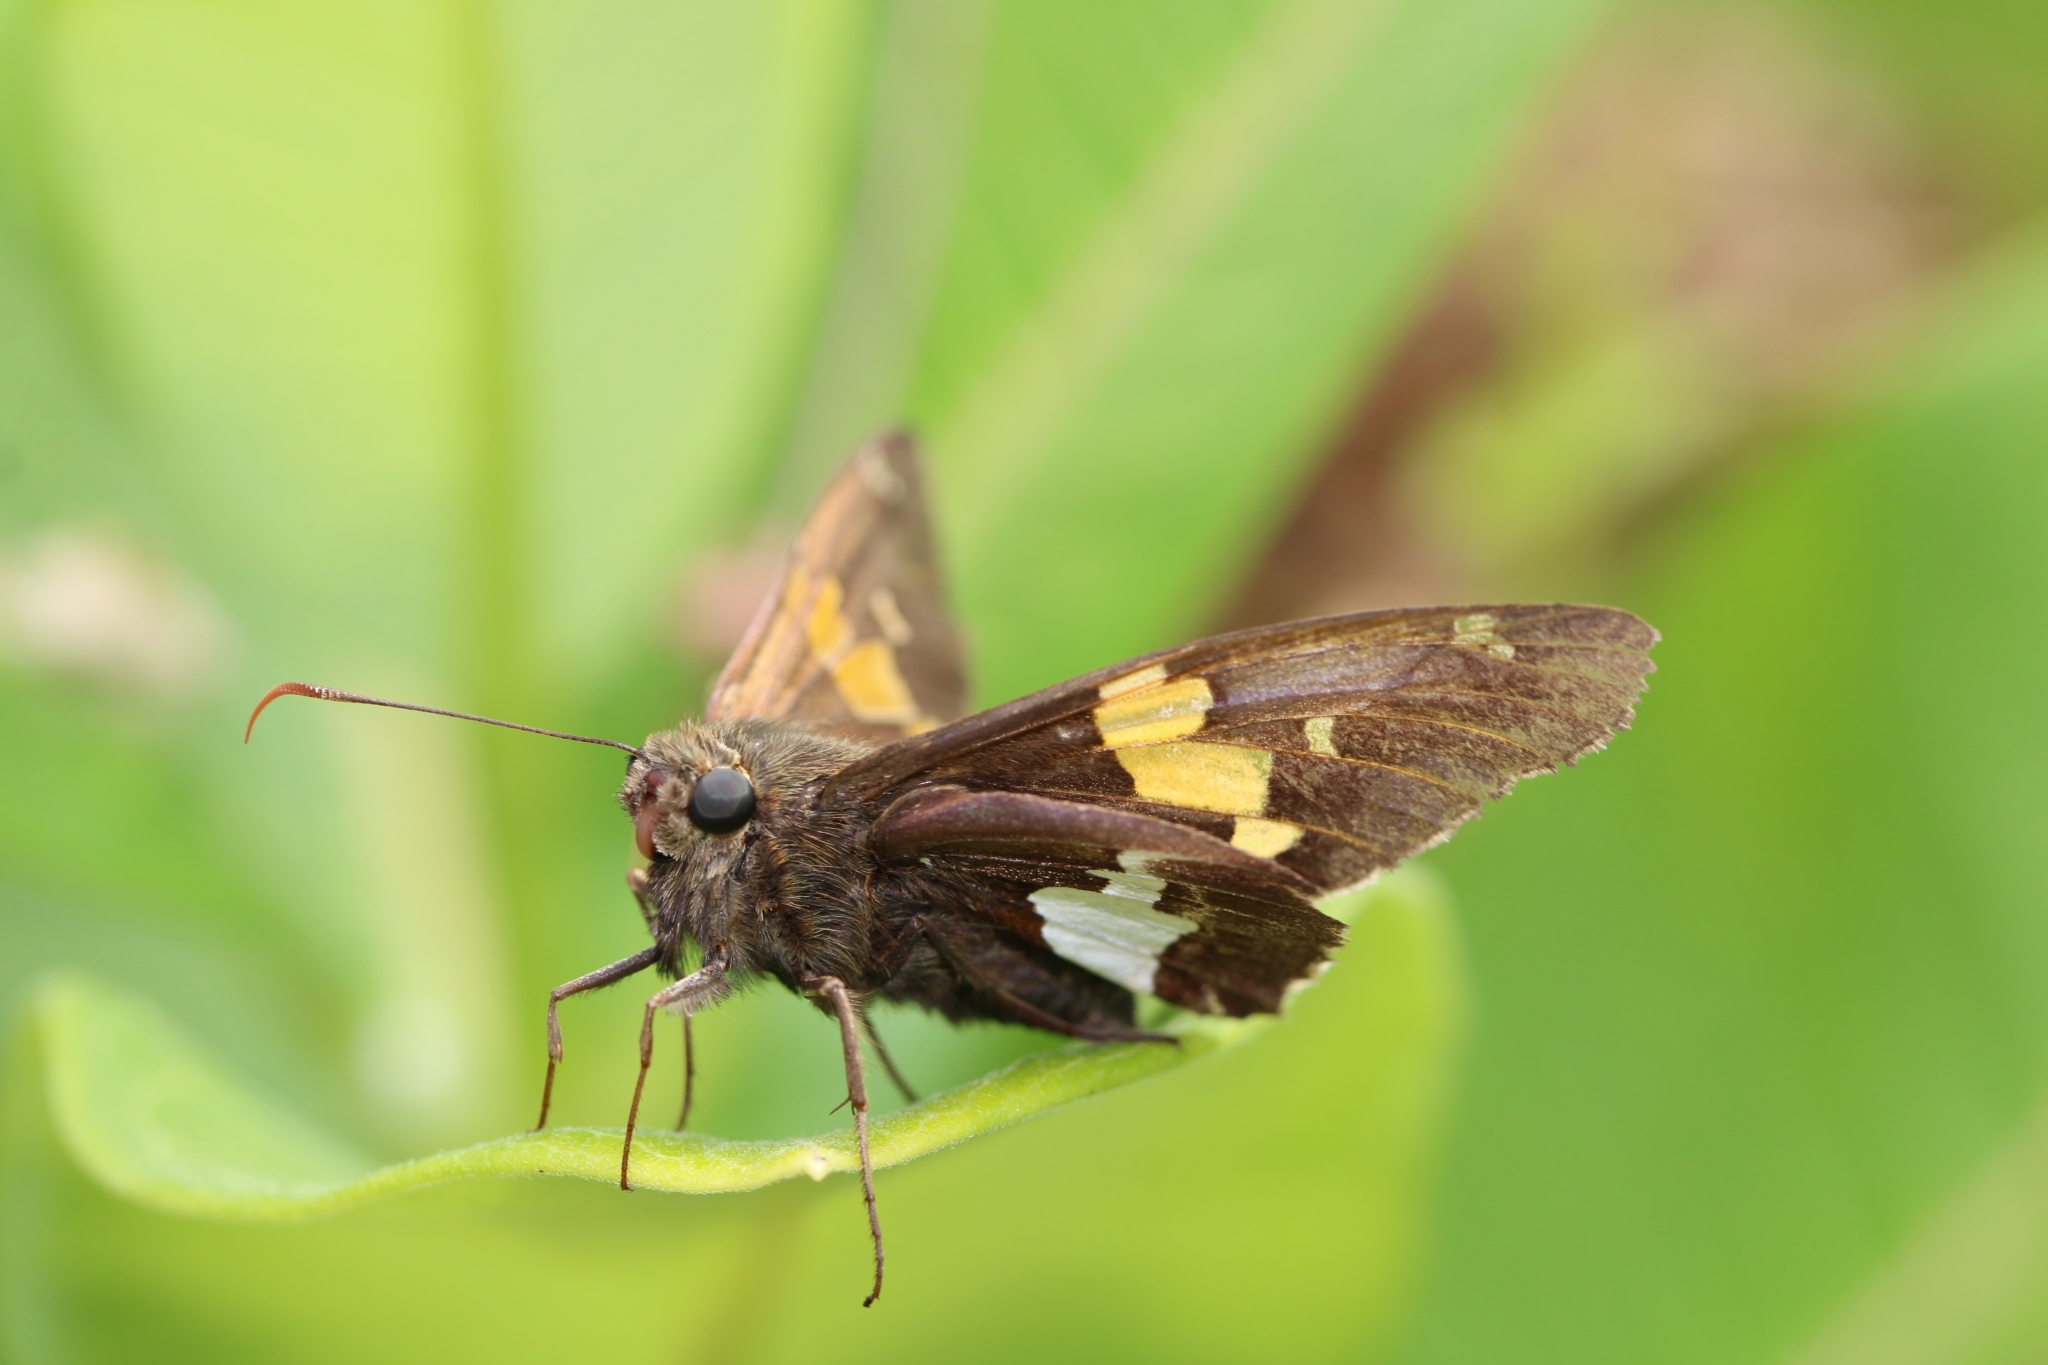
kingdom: Animalia
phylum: Arthropoda
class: Insecta
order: Lepidoptera
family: Hesperiidae
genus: Epargyreus
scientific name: Epargyreus clarus
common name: Silver-spotted skipper
